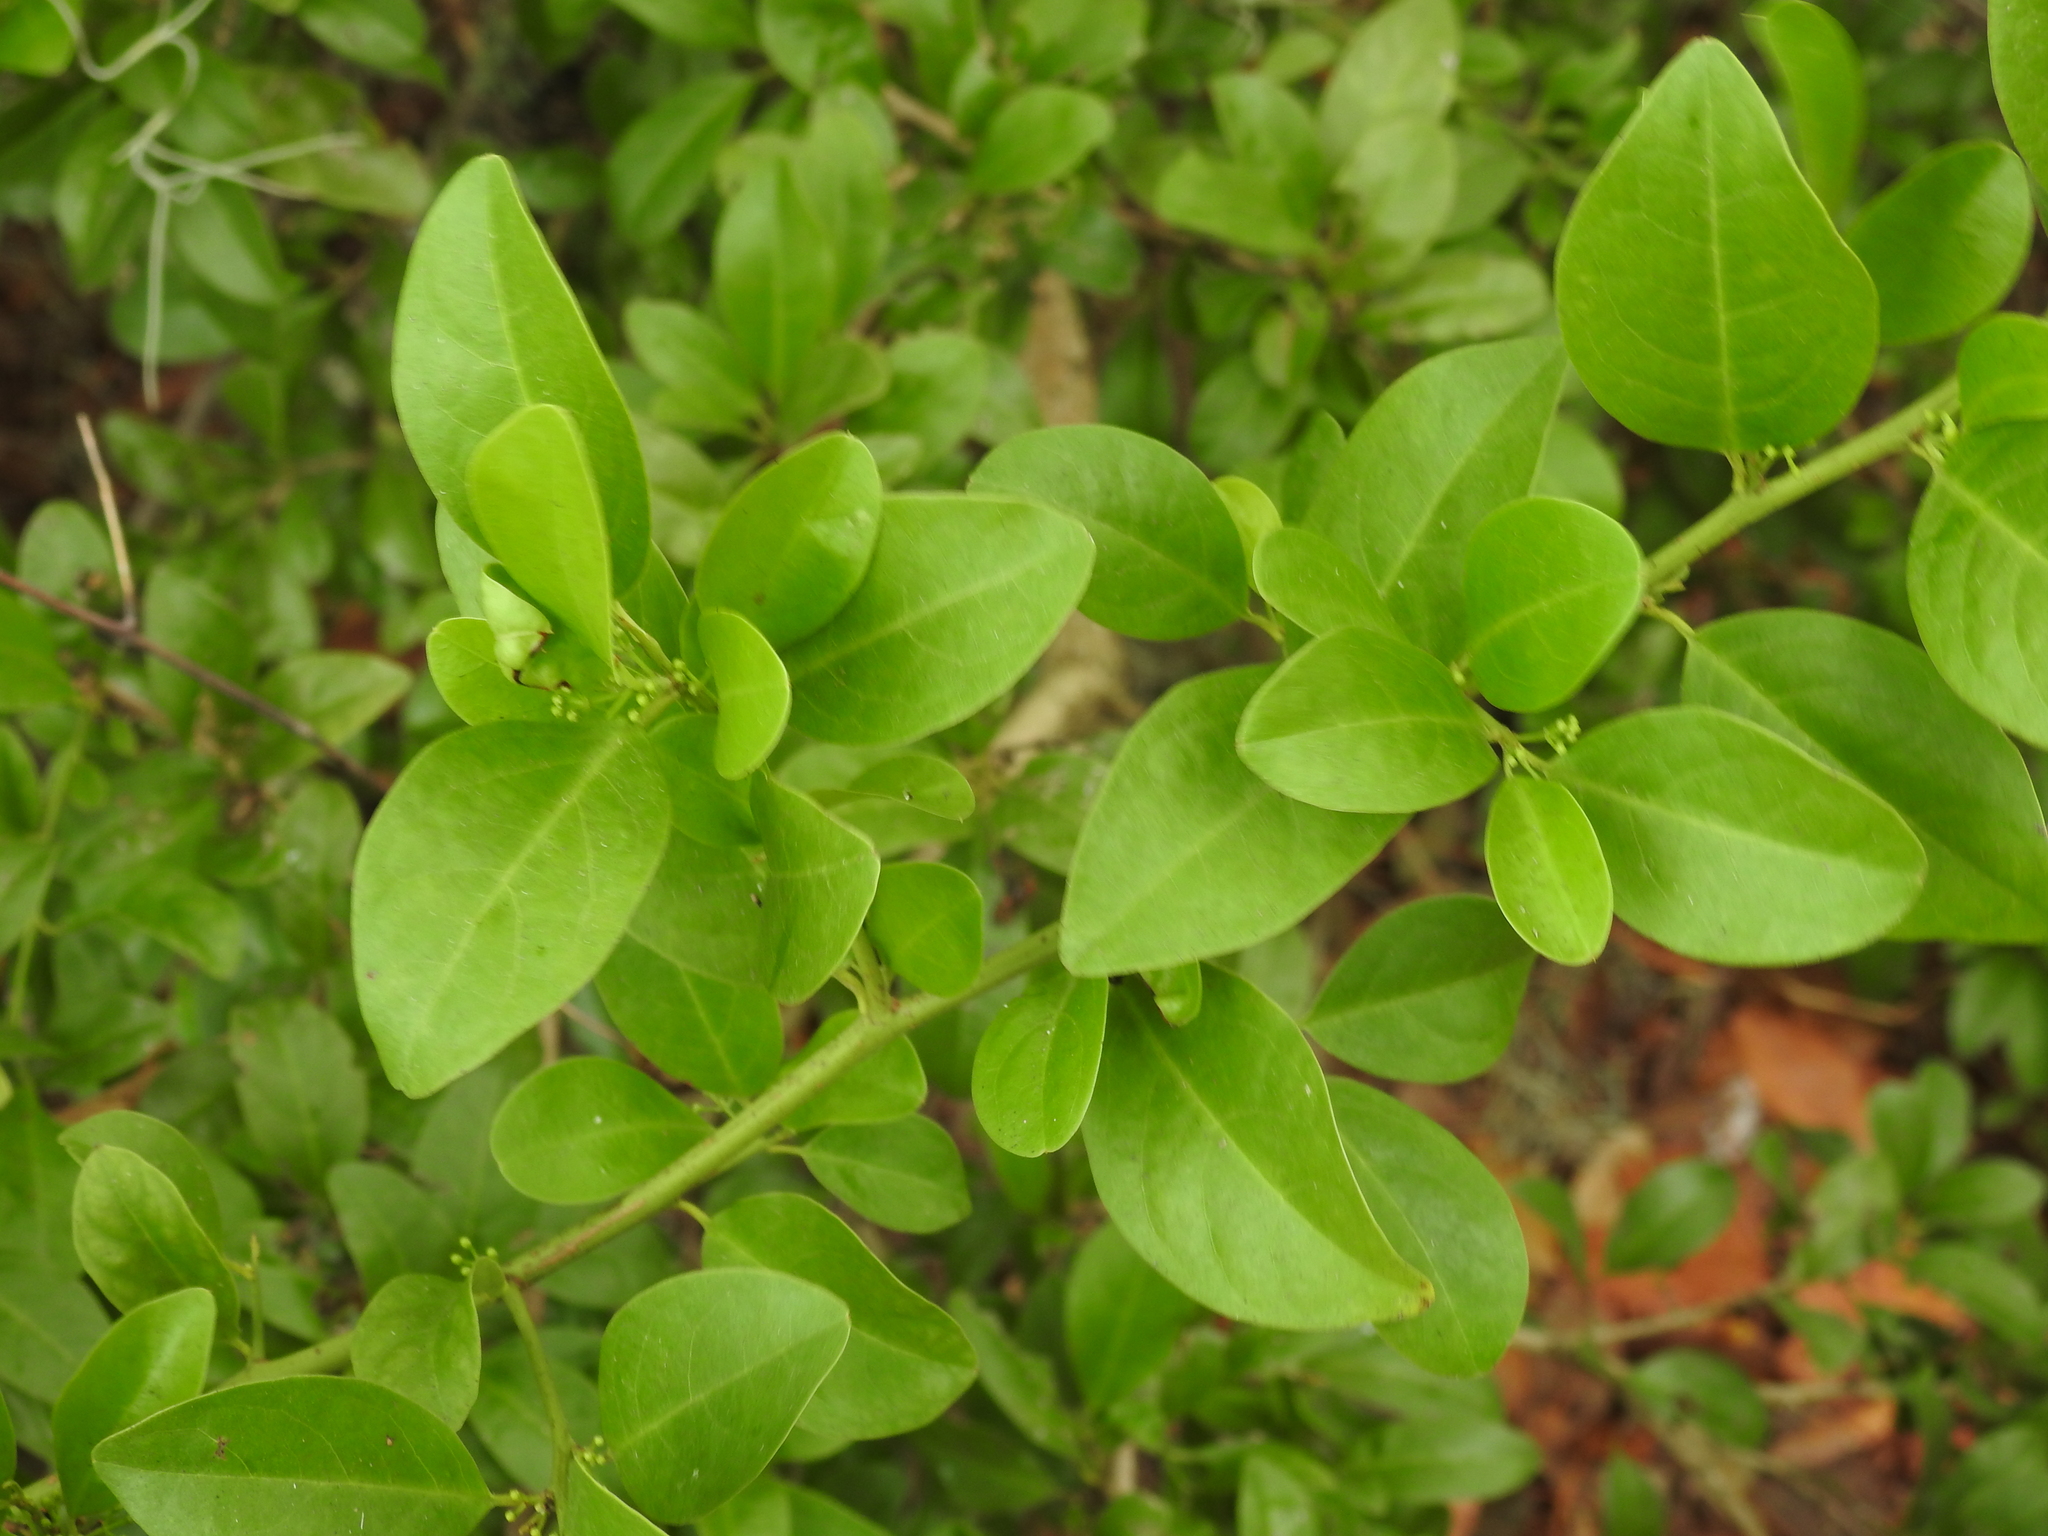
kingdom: Plantae
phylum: Tracheophyta
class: Magnoliopsida
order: Santalales
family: Ximeniaceae
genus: Ximenia
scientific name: Ximenia americana
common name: Tallowwood
